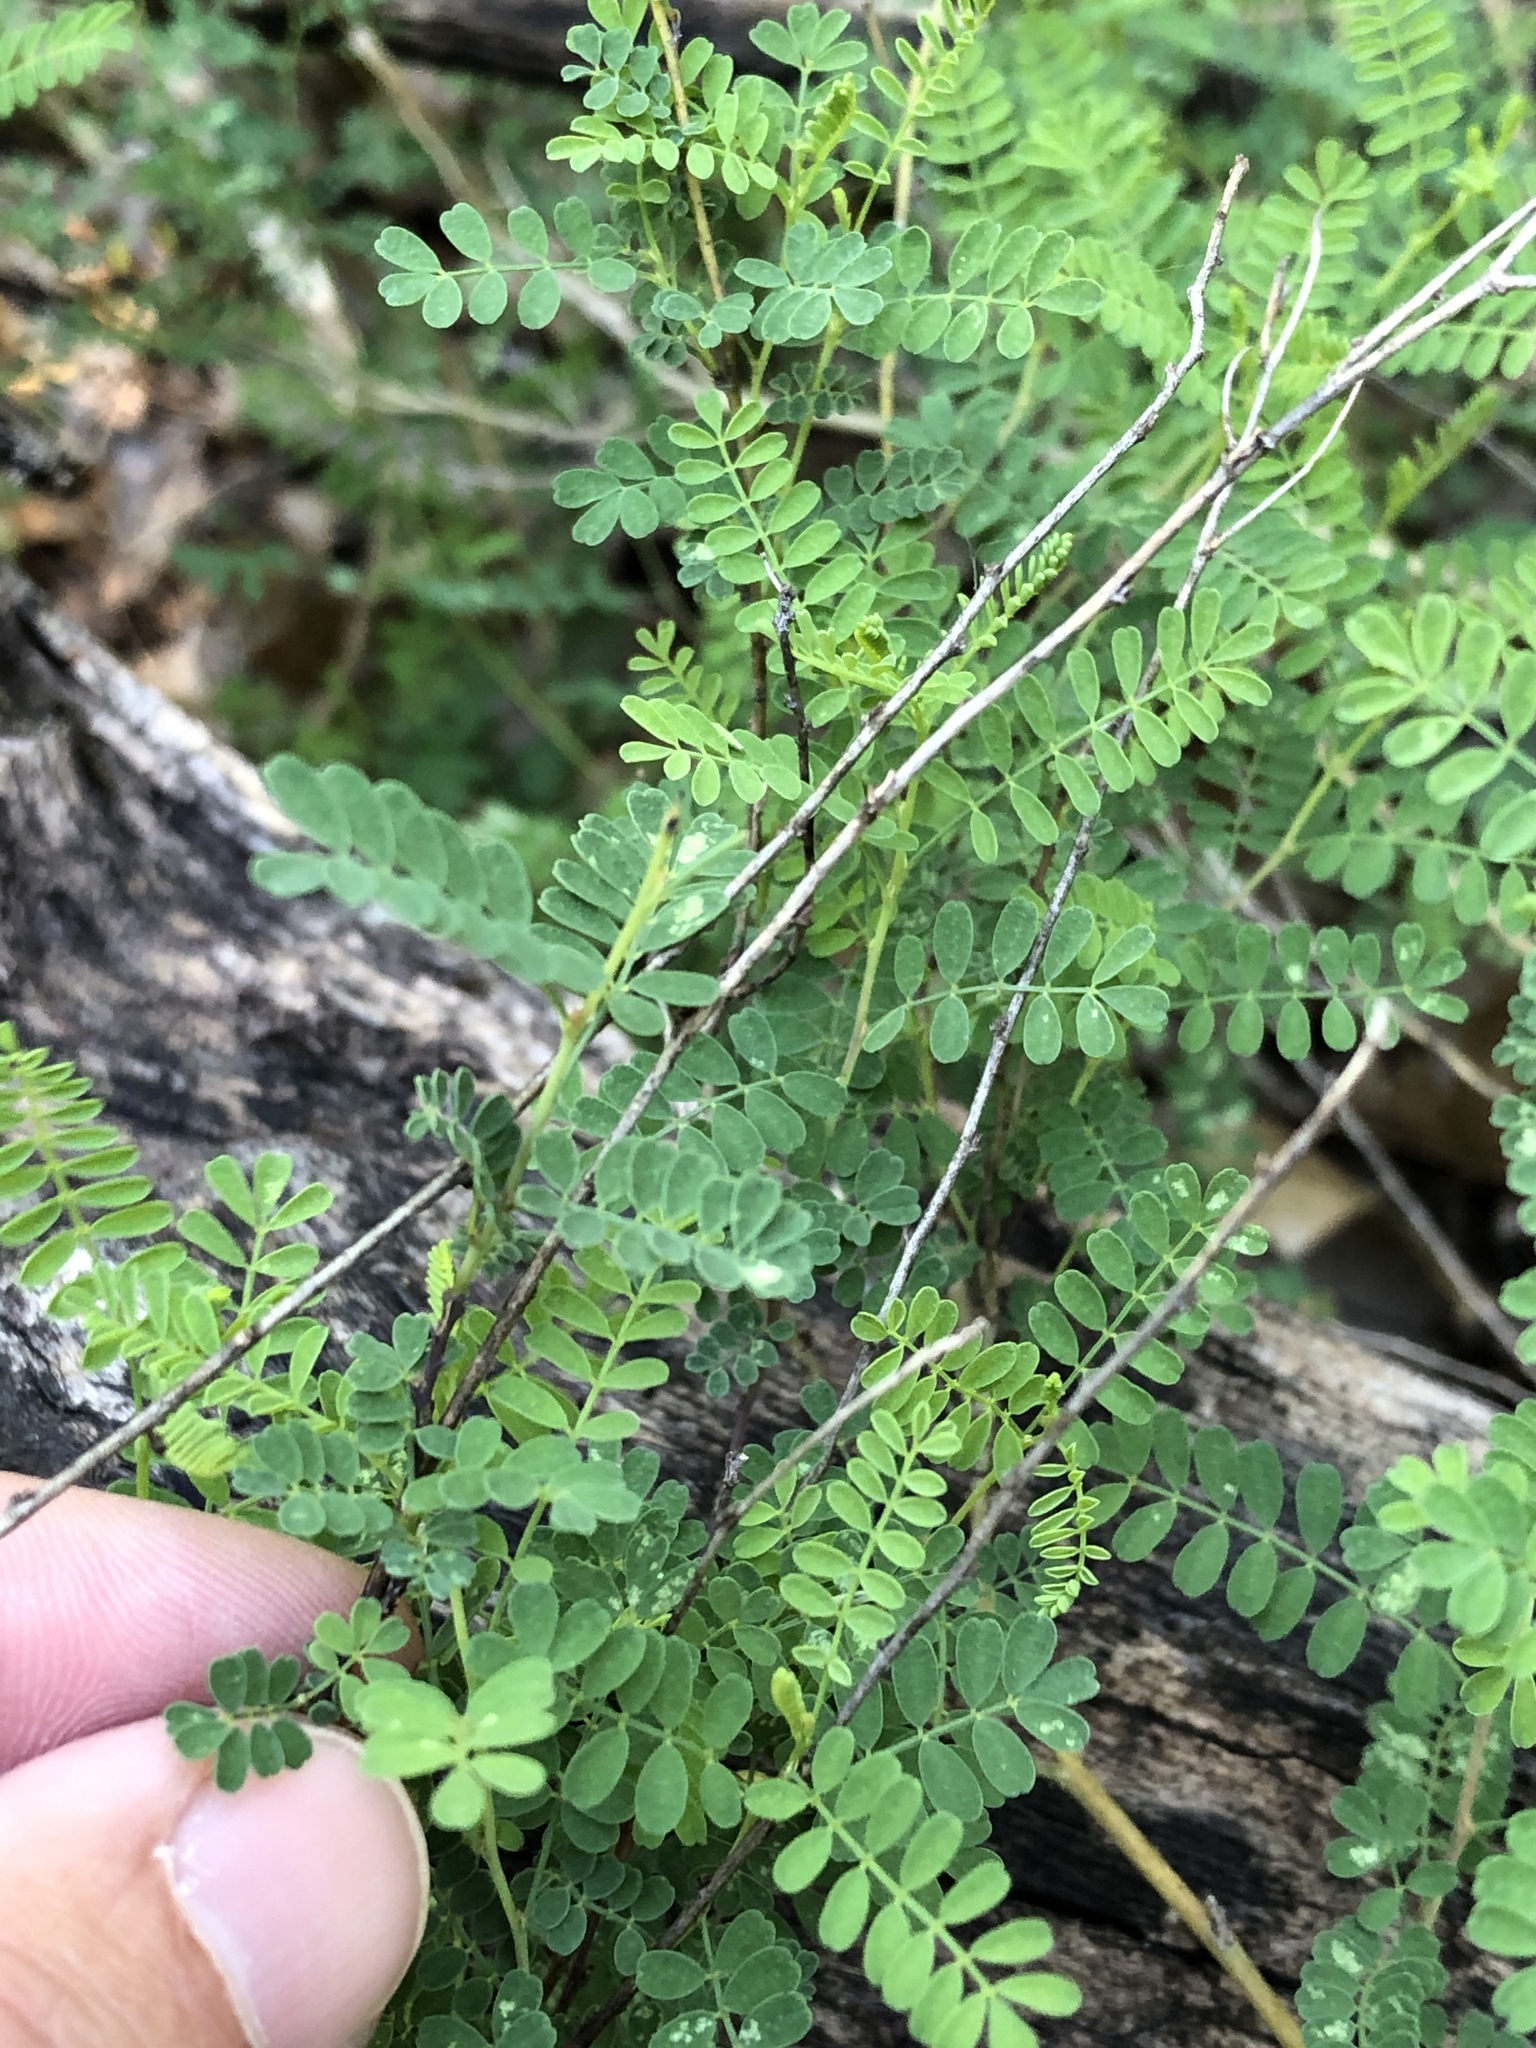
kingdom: Plantae
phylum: Tracheophyta
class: Magnoliopsida
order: Fabales
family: Fabaceae
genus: Dalea
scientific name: Dalea frutescens
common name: Black dalea
